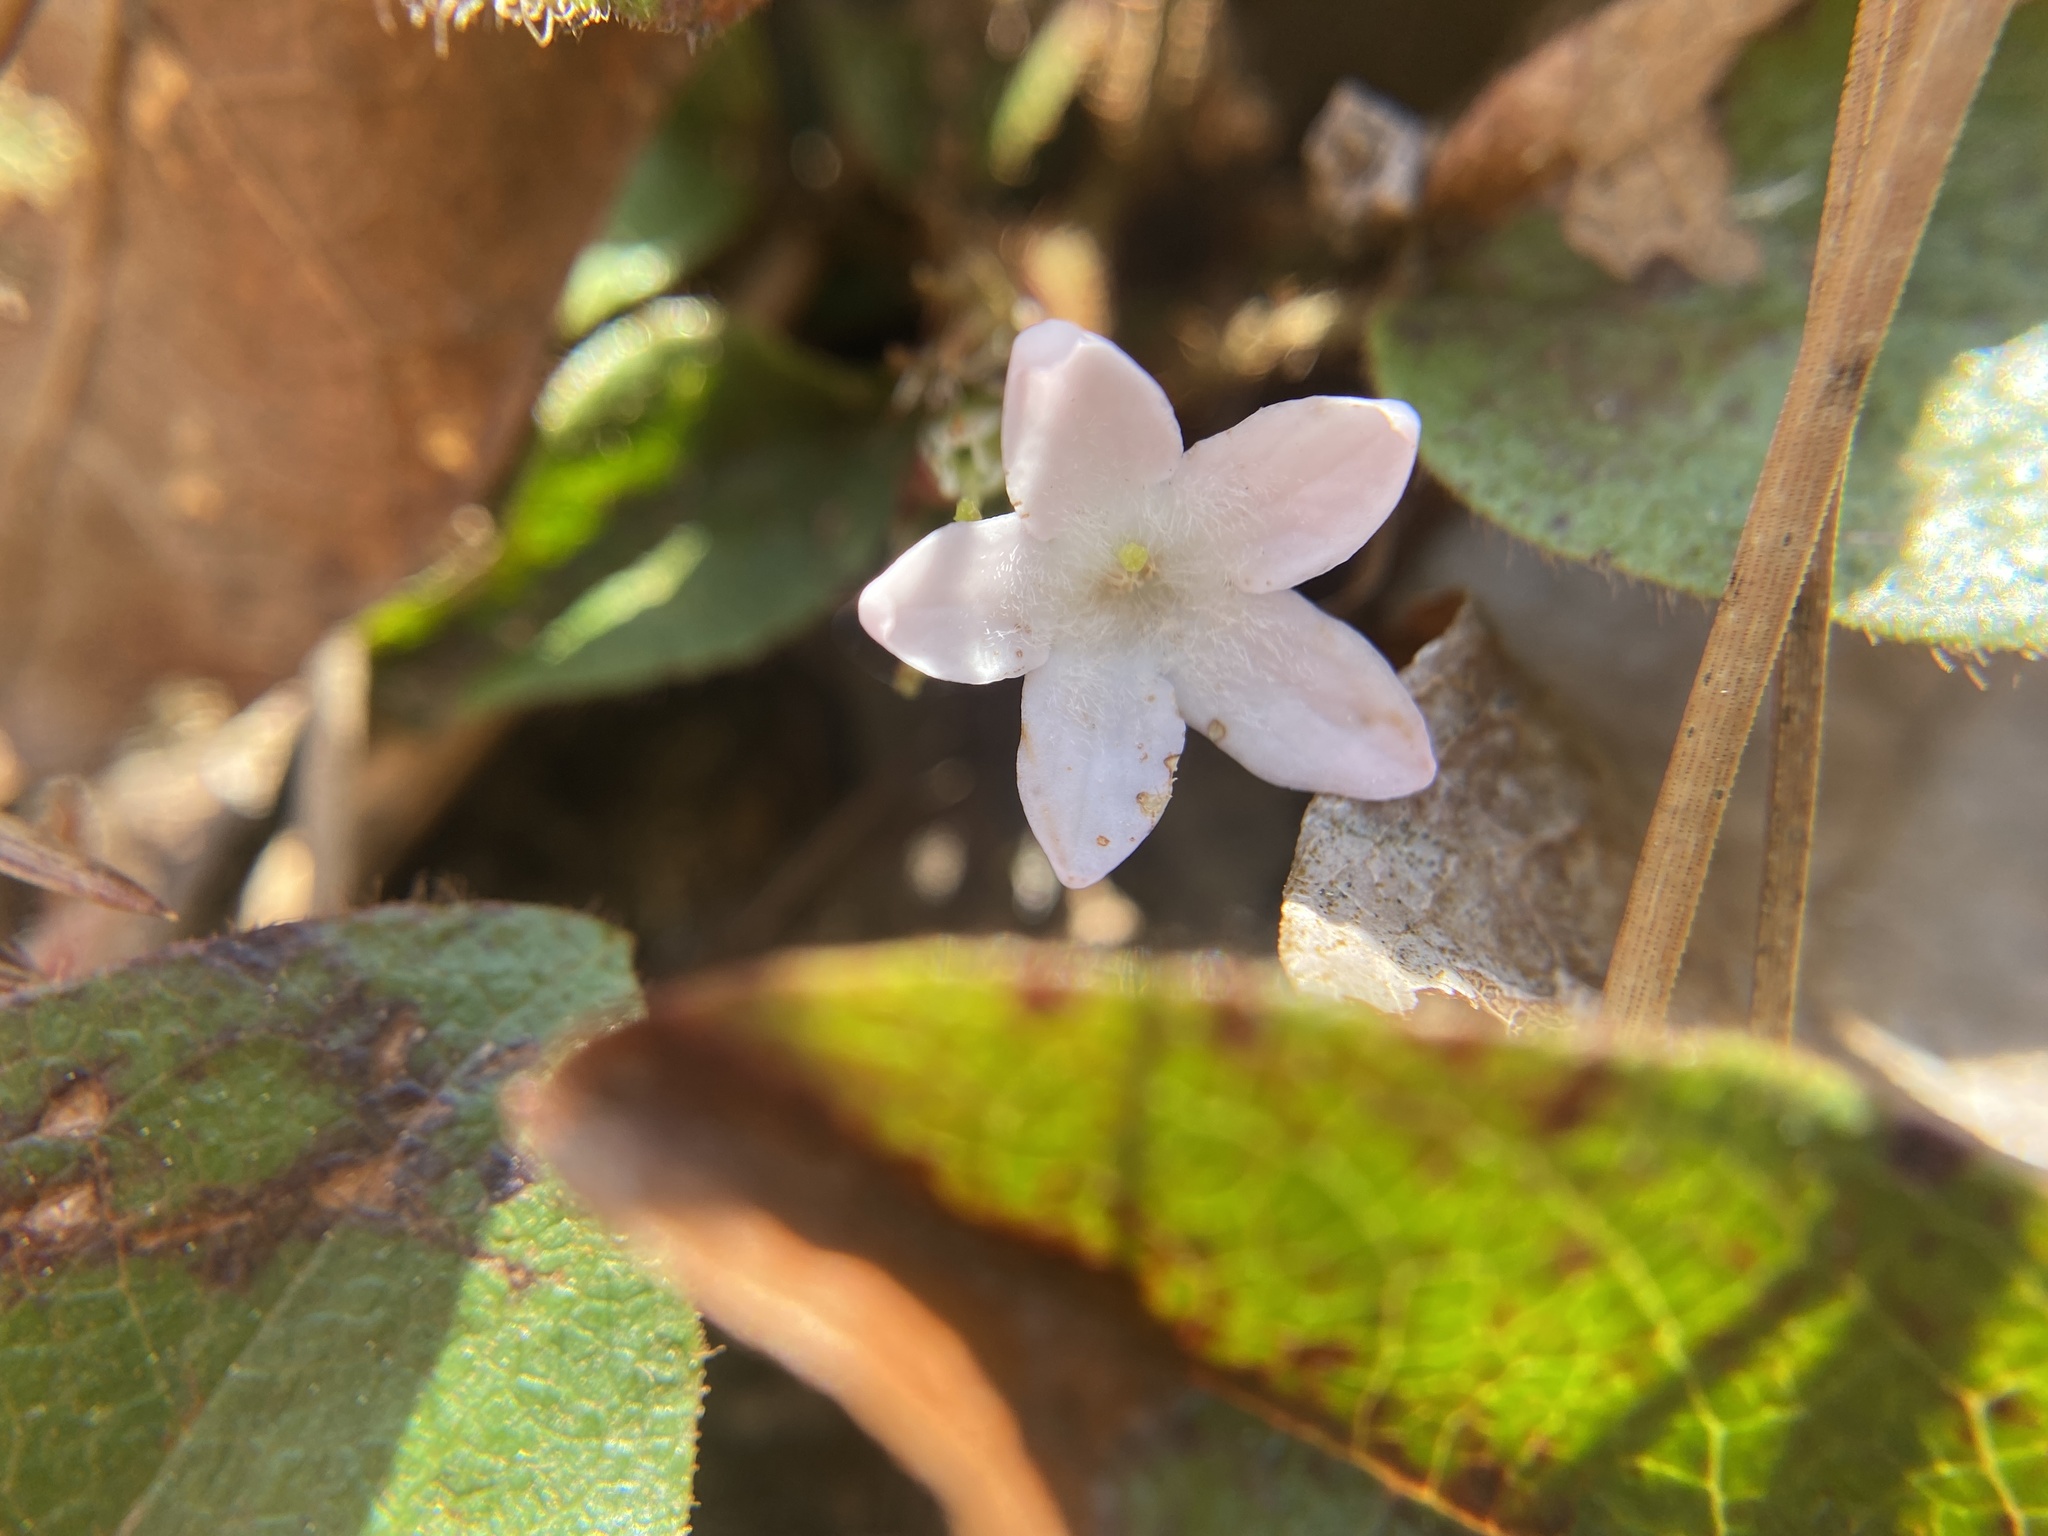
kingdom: Plantae
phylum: Tracheophyta
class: Magnoliopsida
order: Ericales
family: Ericaceae
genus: Epigaea
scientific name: Epigaea repens
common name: Gravelroot
